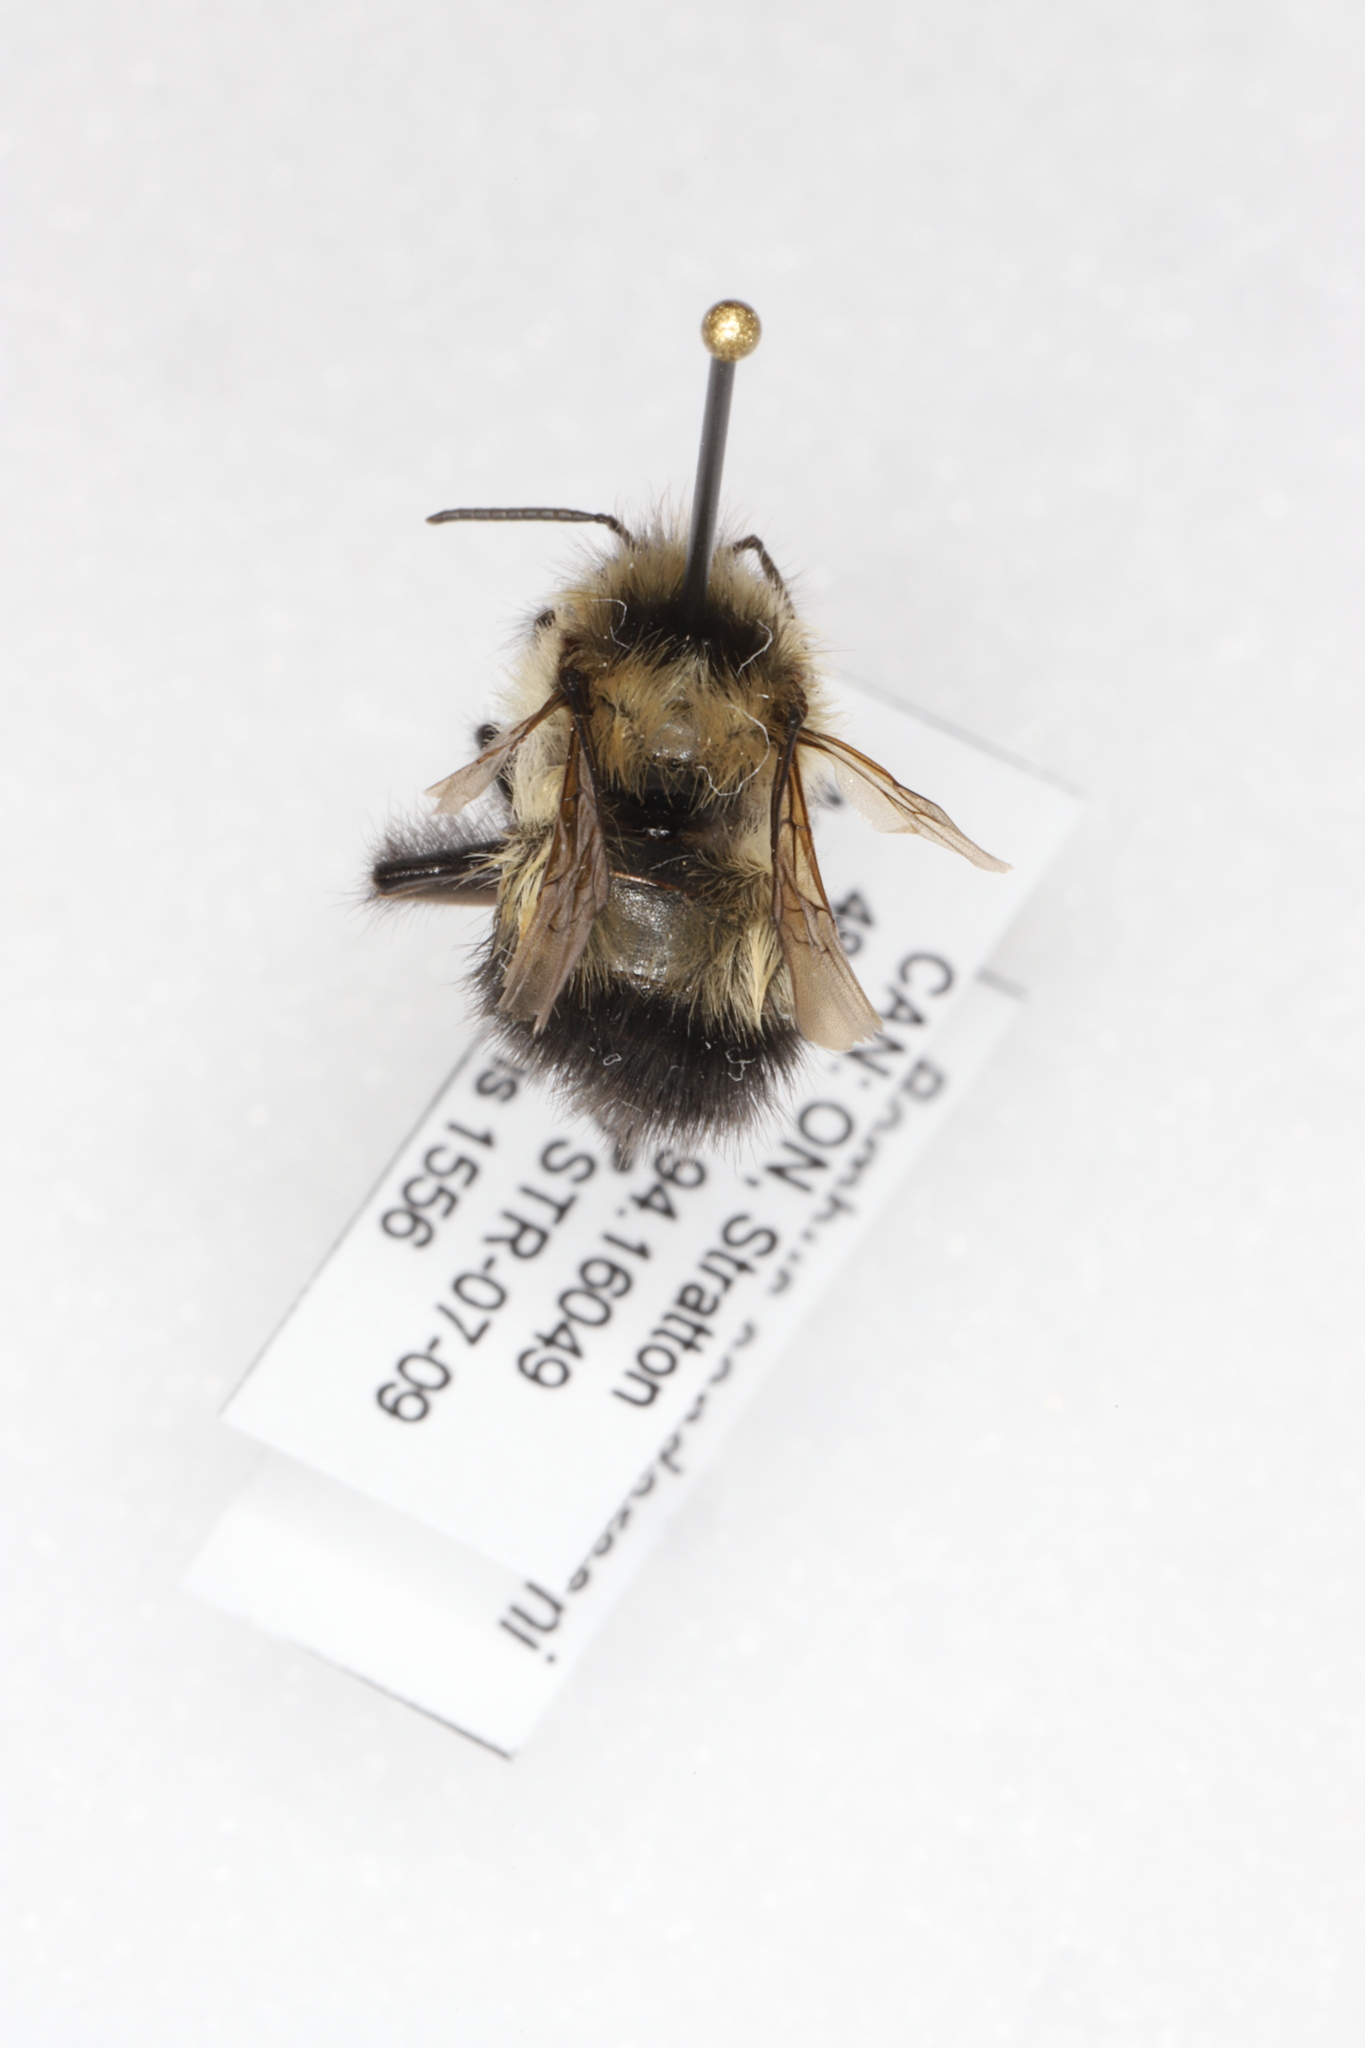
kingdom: Animalia
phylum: Arthropoda
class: Insecta
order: Hymenoptera
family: Apidae
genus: Bombus
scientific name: Bombus sandersoni
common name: Sanderson bumble bee
